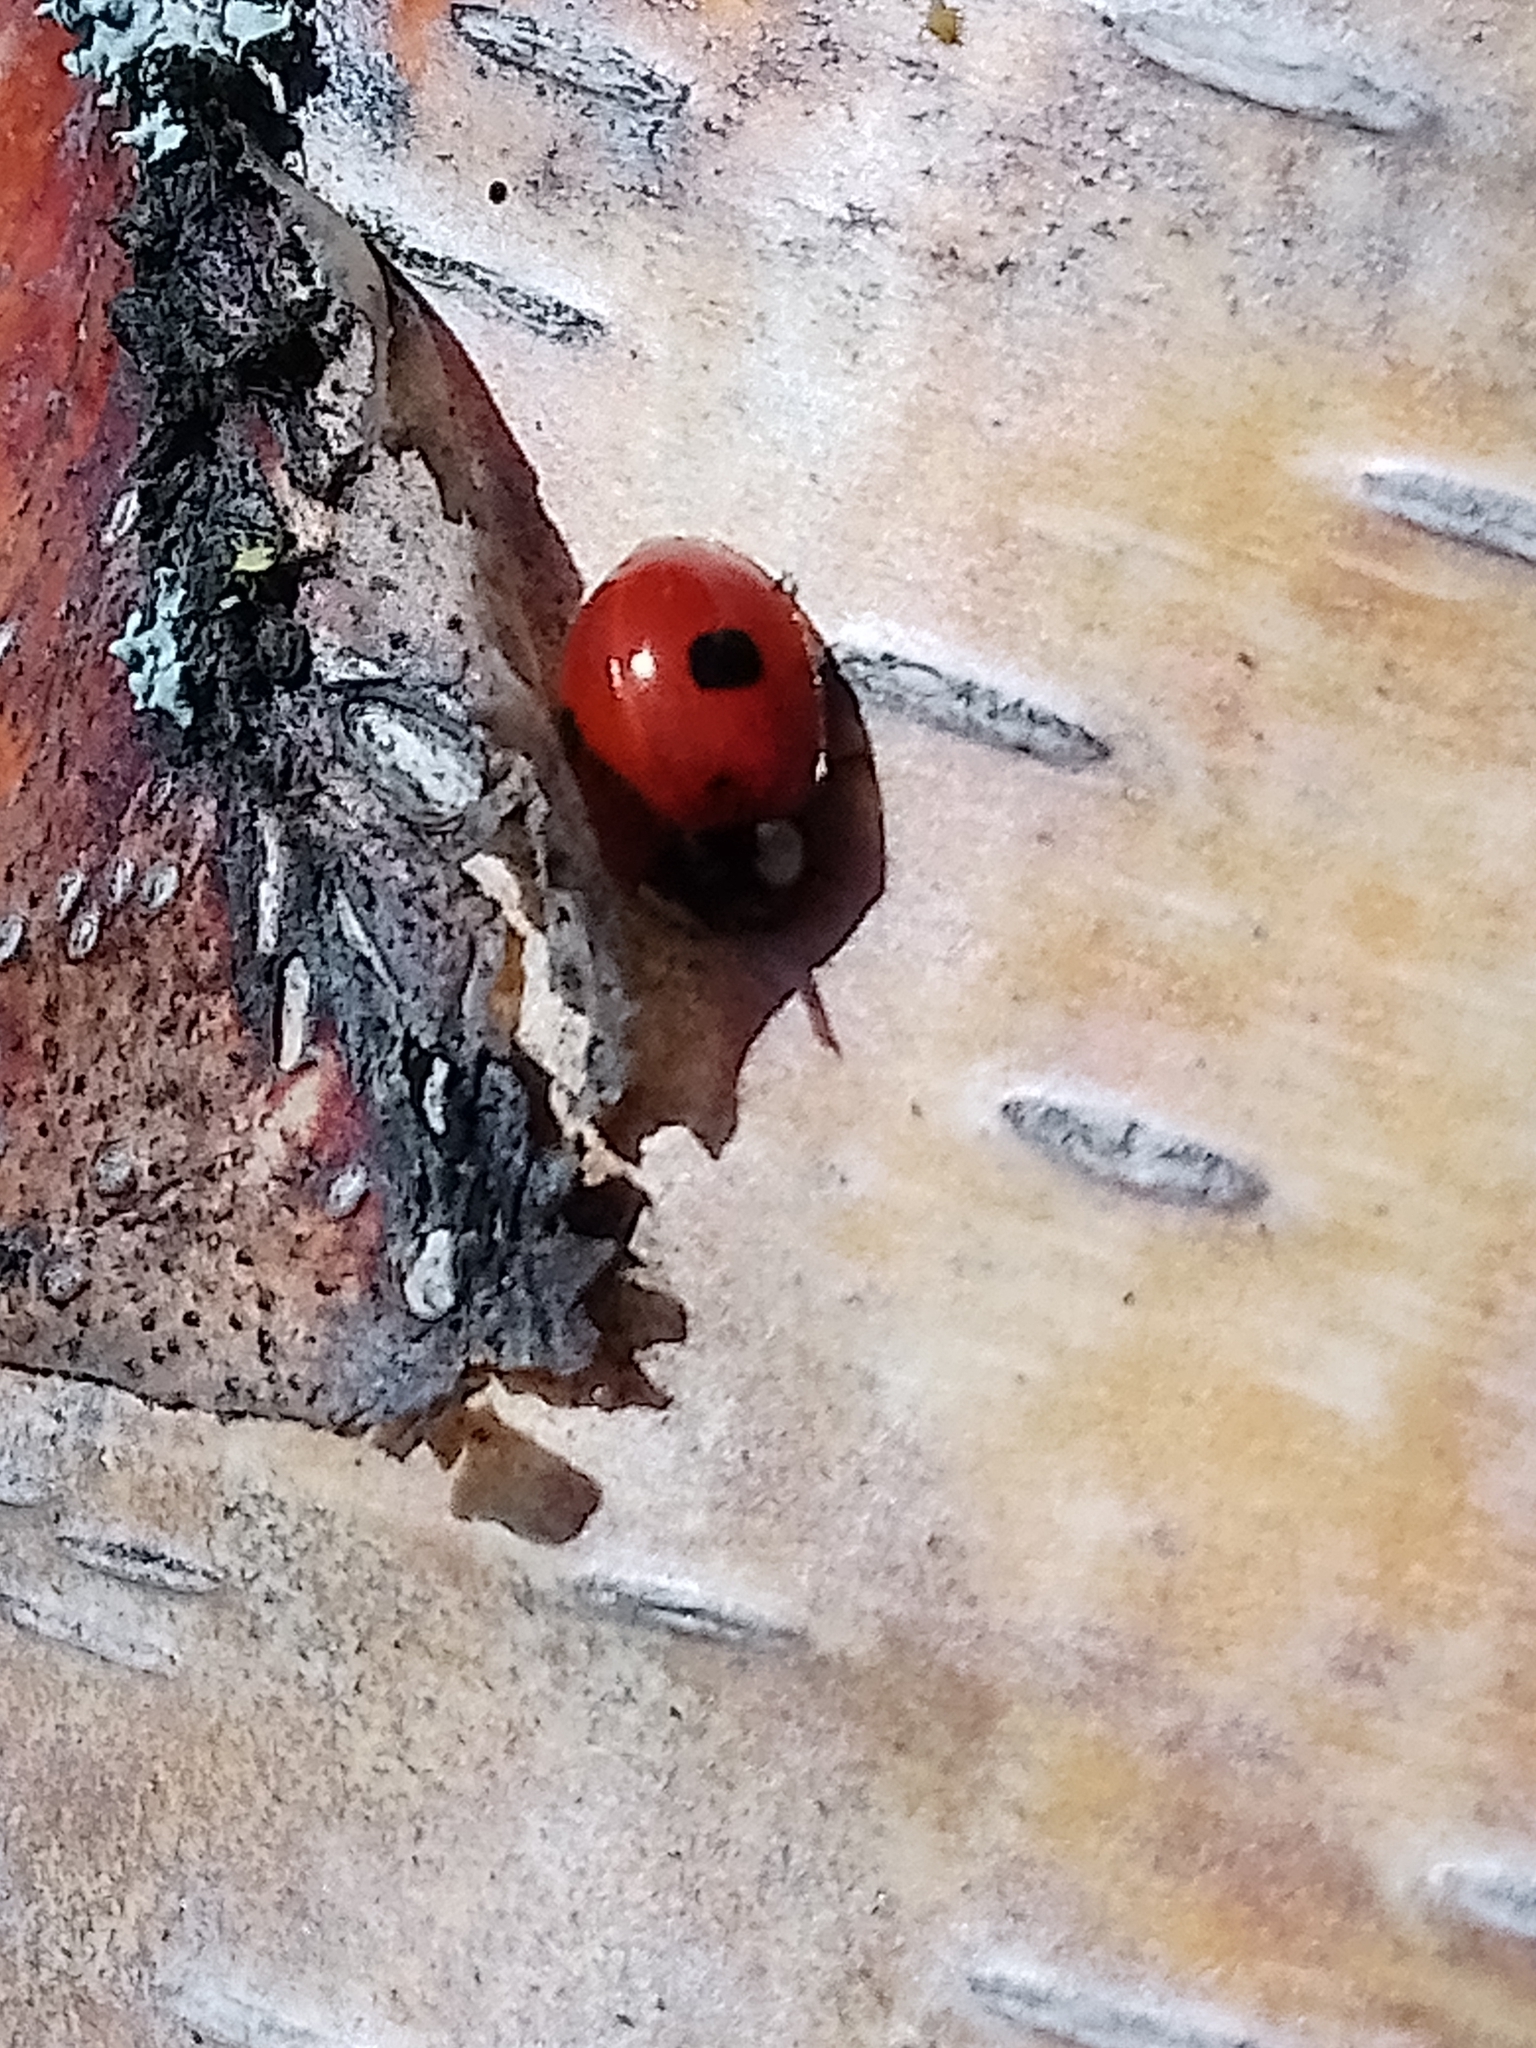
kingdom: Animalia
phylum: Arthropoda
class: Insecta
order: Coleoptera
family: Coccinellidae
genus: Adalia
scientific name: Adalia bipunctata
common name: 2-spot ladybird
